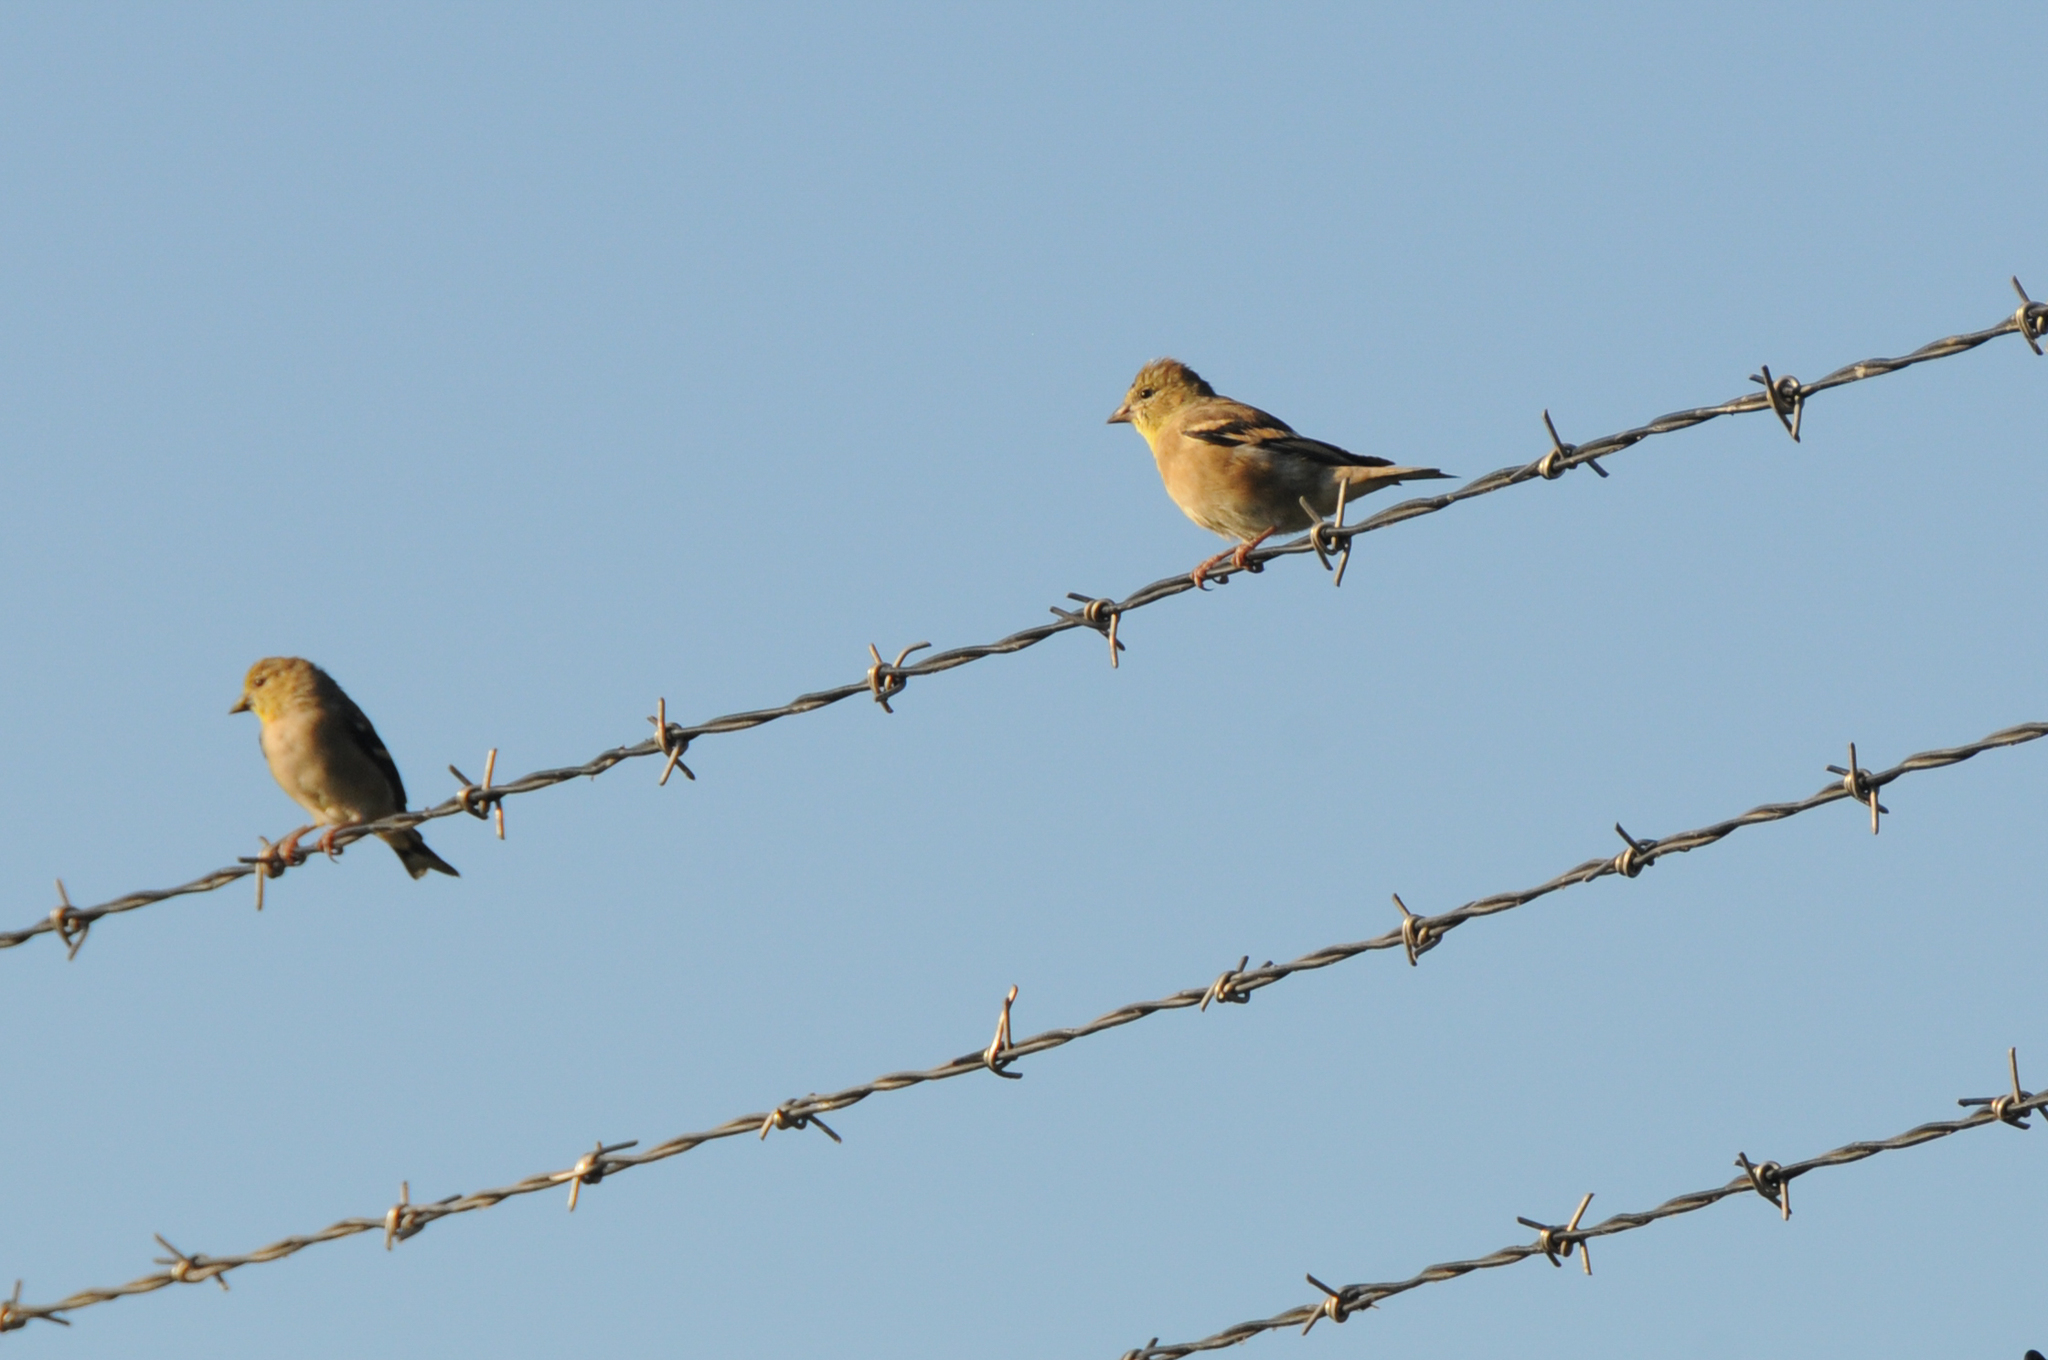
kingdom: Animalia
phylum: Chordata
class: Aves
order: Passeriformes
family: Fringillidae
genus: Spinus
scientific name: Spinus tristis
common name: American goldfinch
